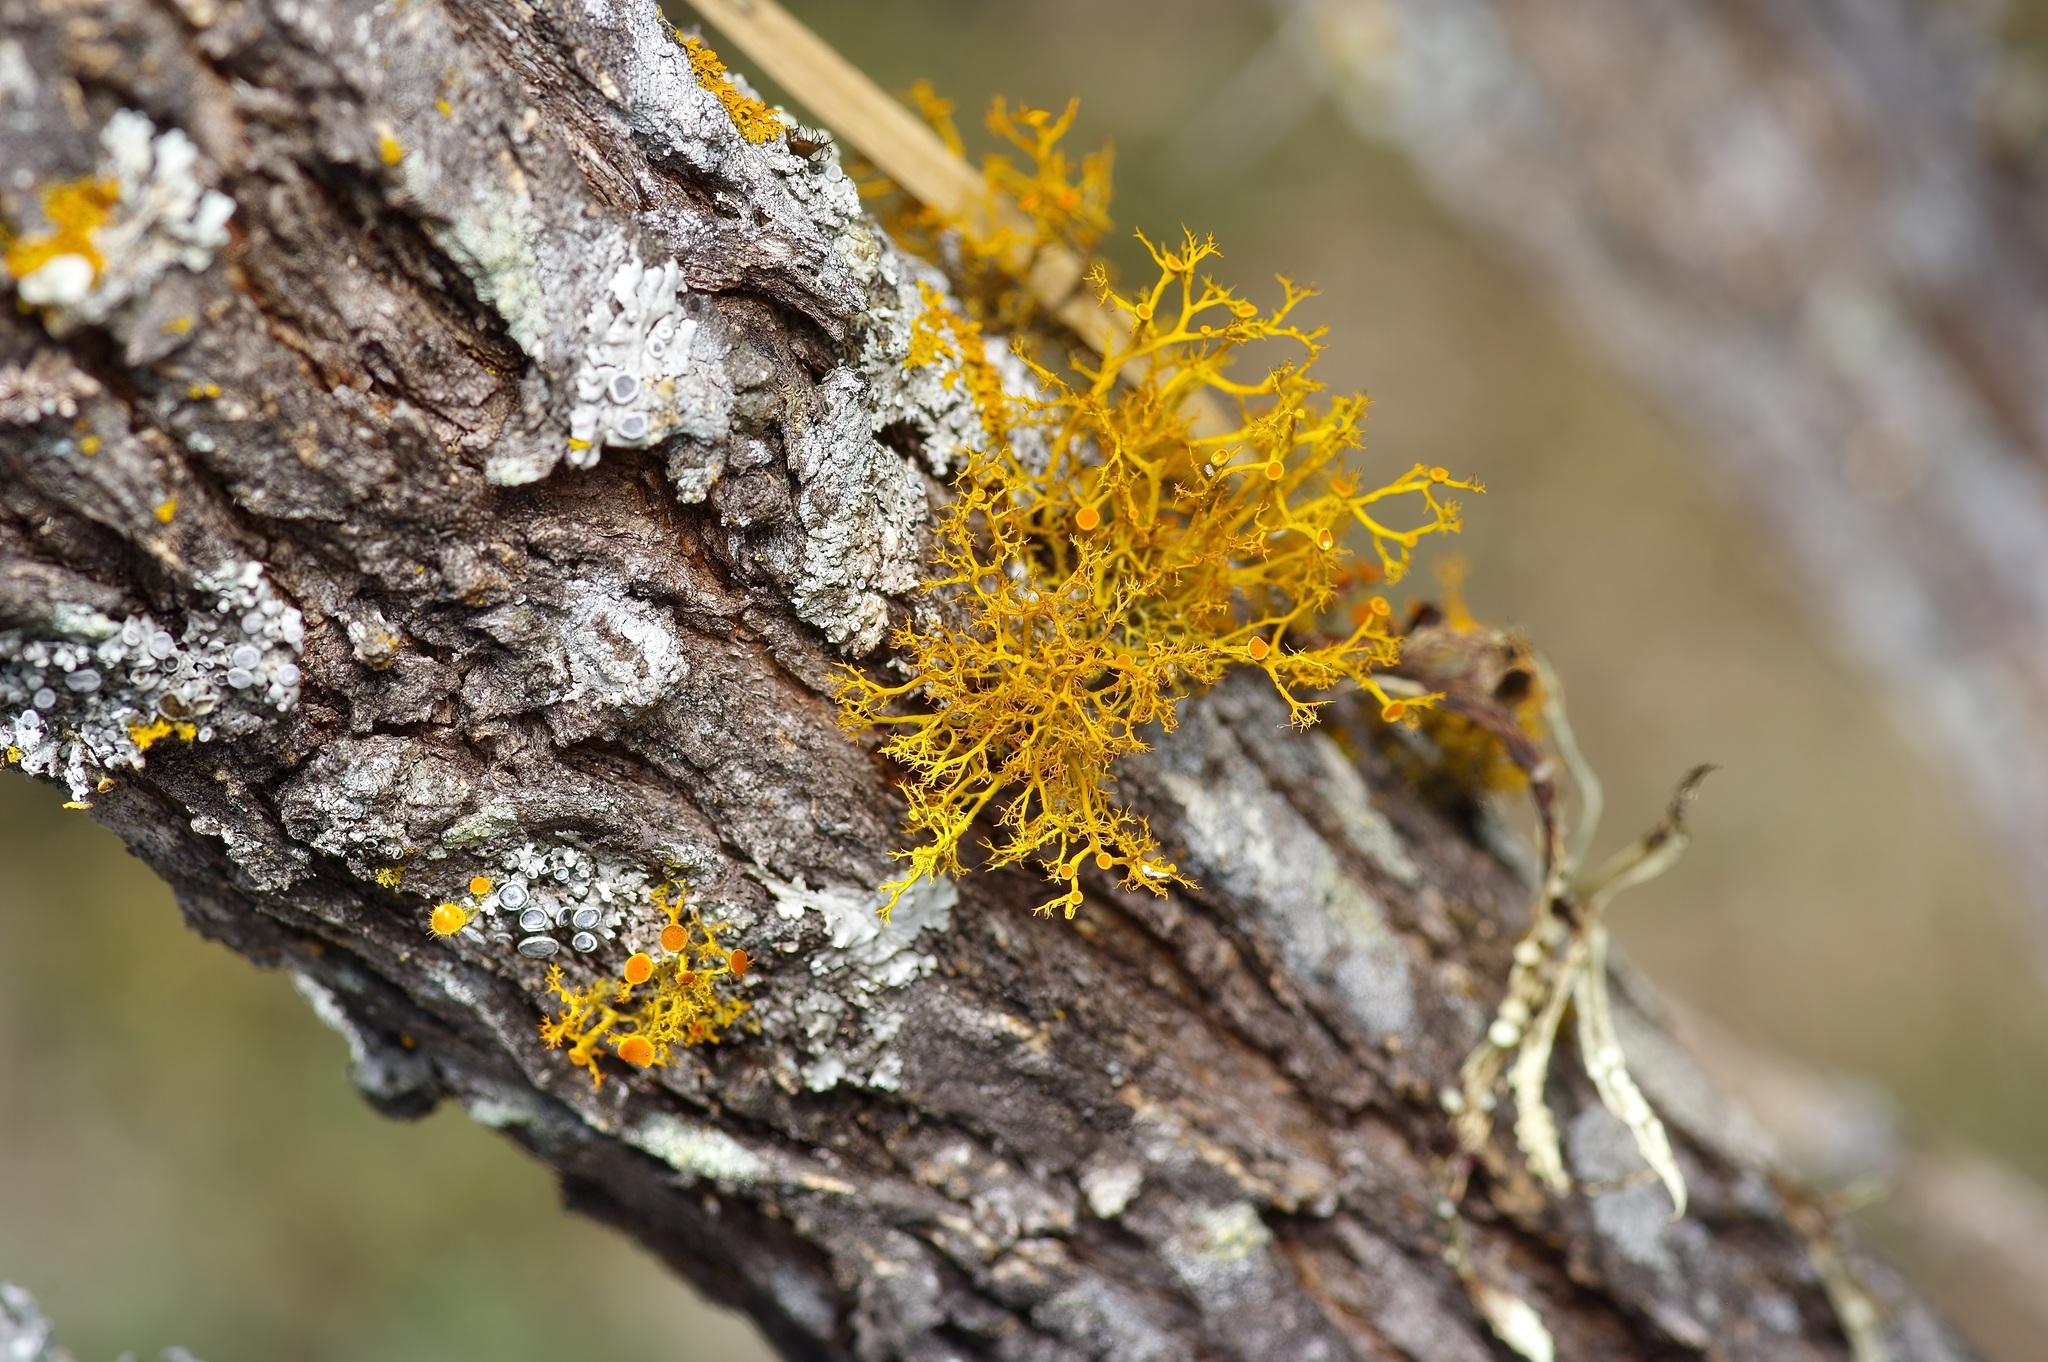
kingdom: Fungi
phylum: Ascomycota
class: Lecanoromycetes
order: Teloschistales
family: Teloschistaceae
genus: Teloschistes
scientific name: Teloschistes exilis
